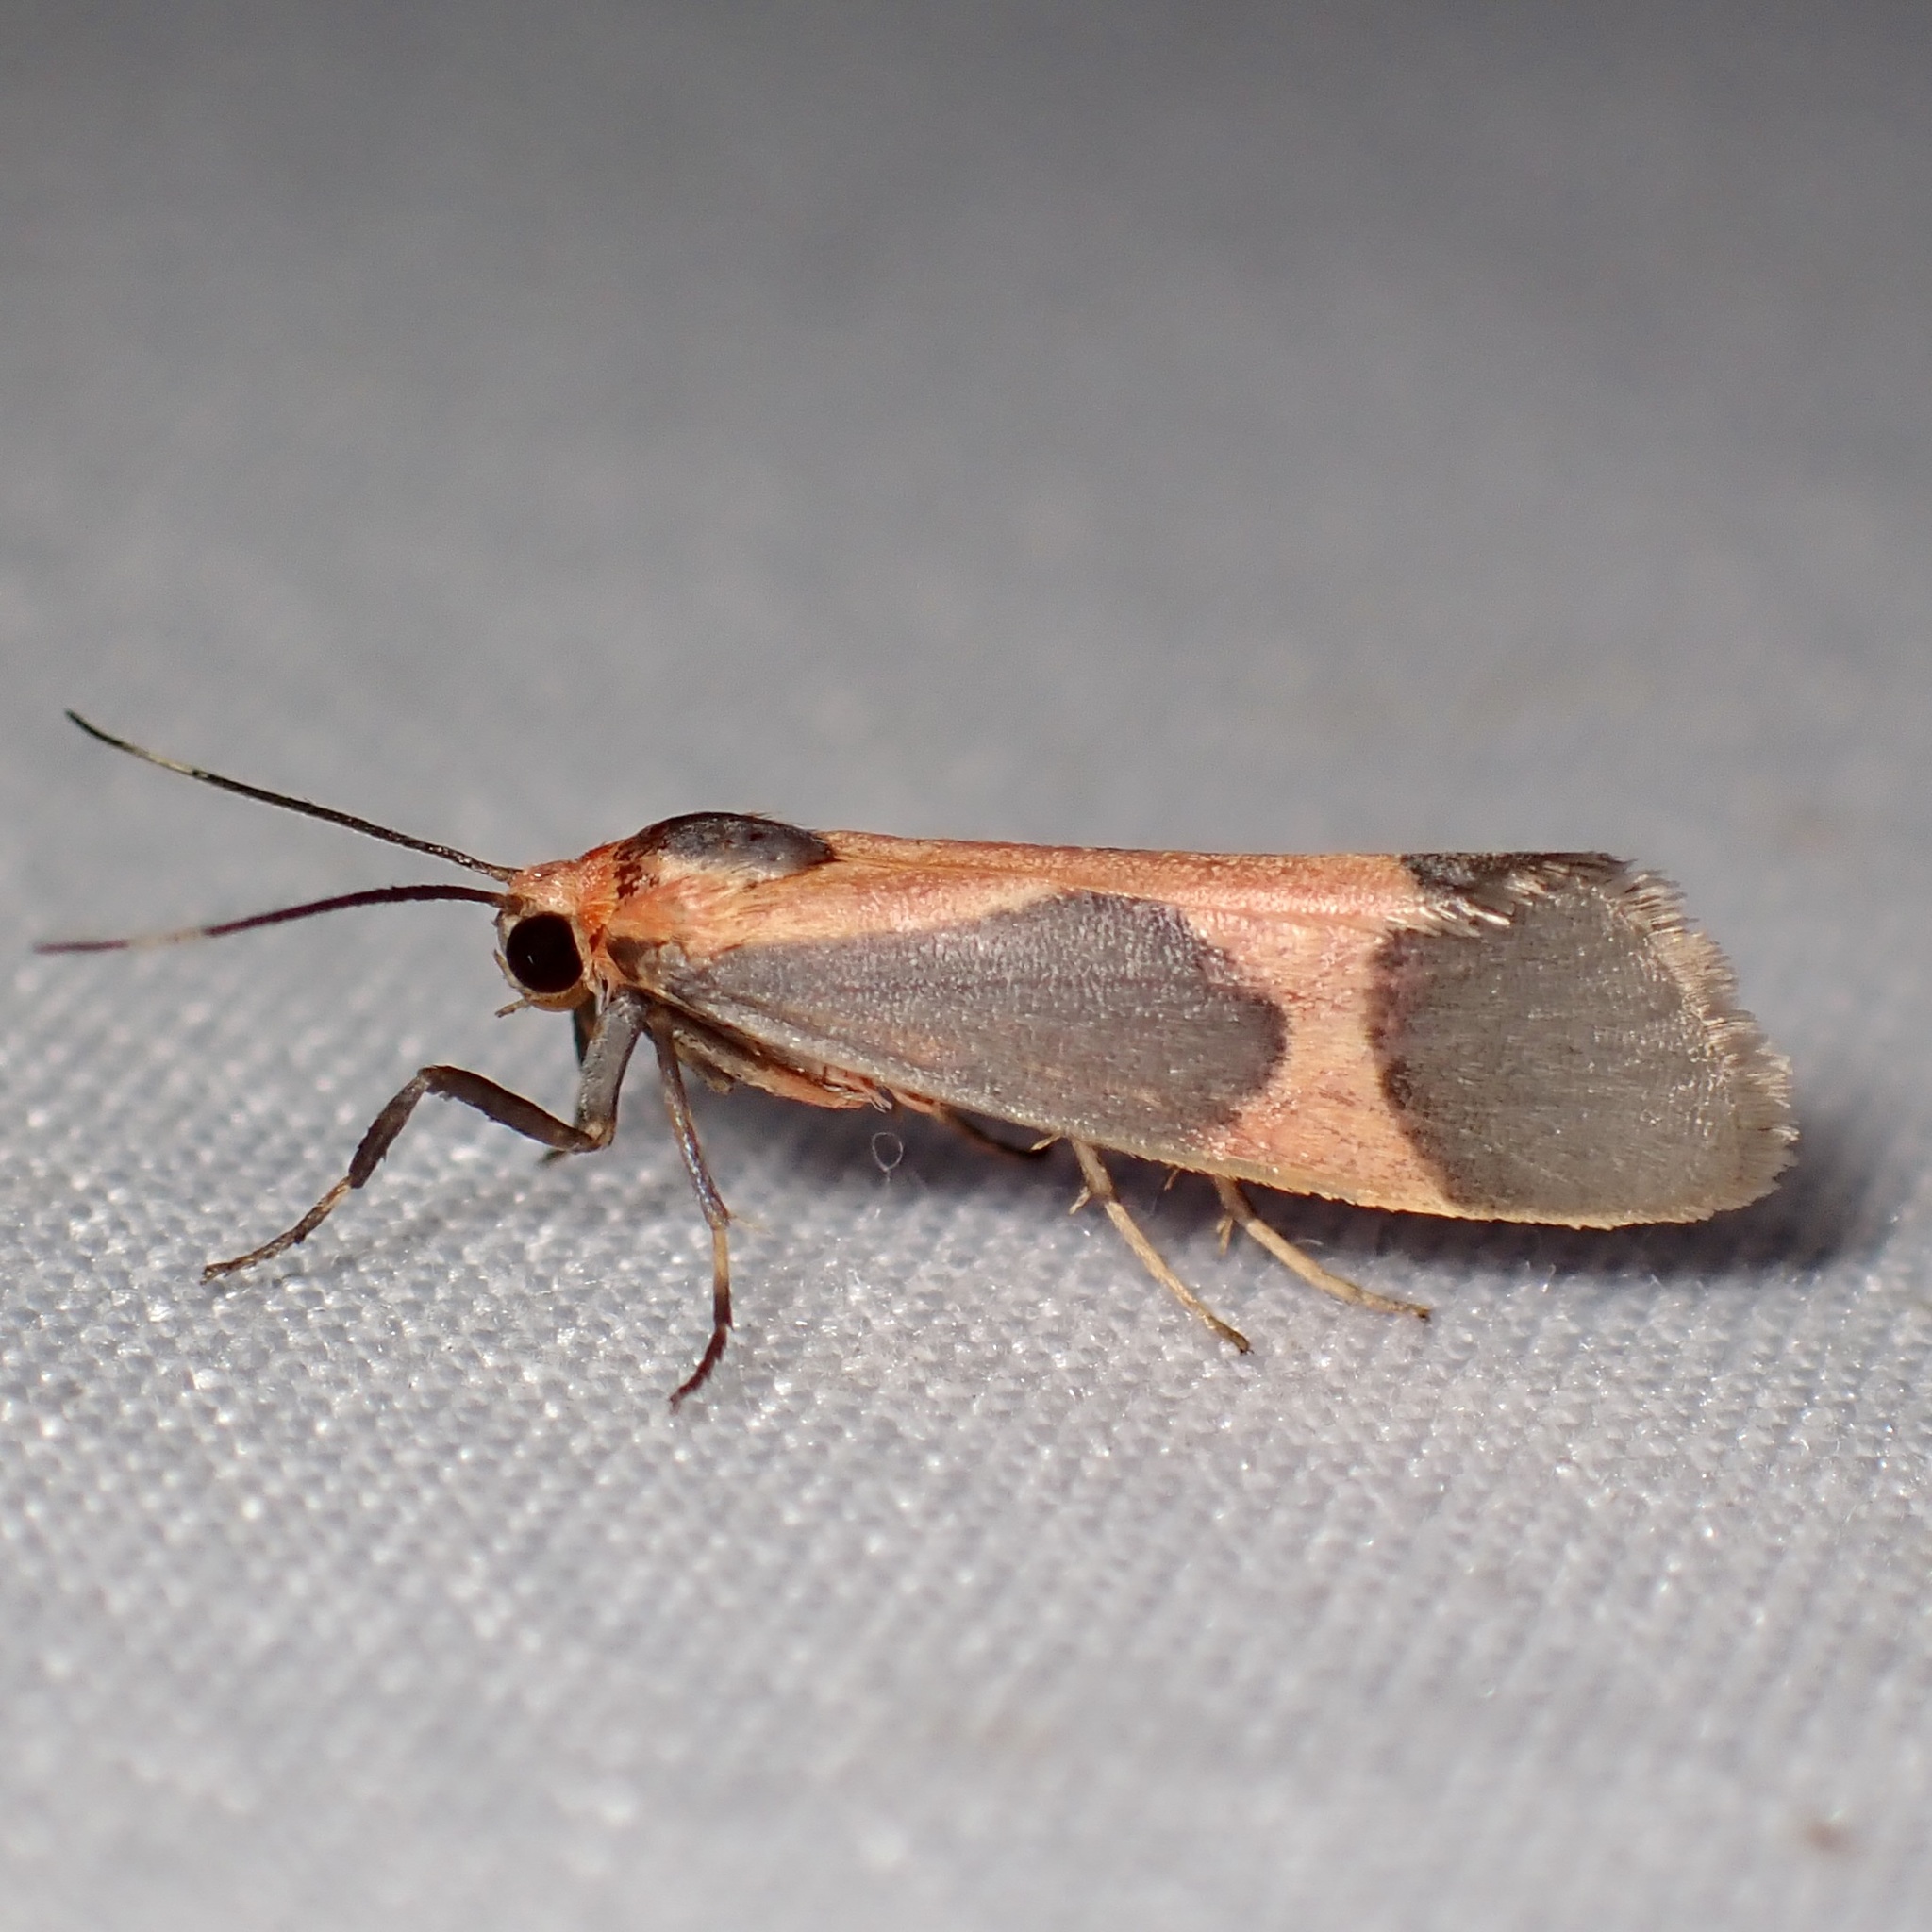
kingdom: Animalia
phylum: Arthropoda
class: Insecta
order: Lepidoptera
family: Erebidae
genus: Cisthene
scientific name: Cisthene martini
